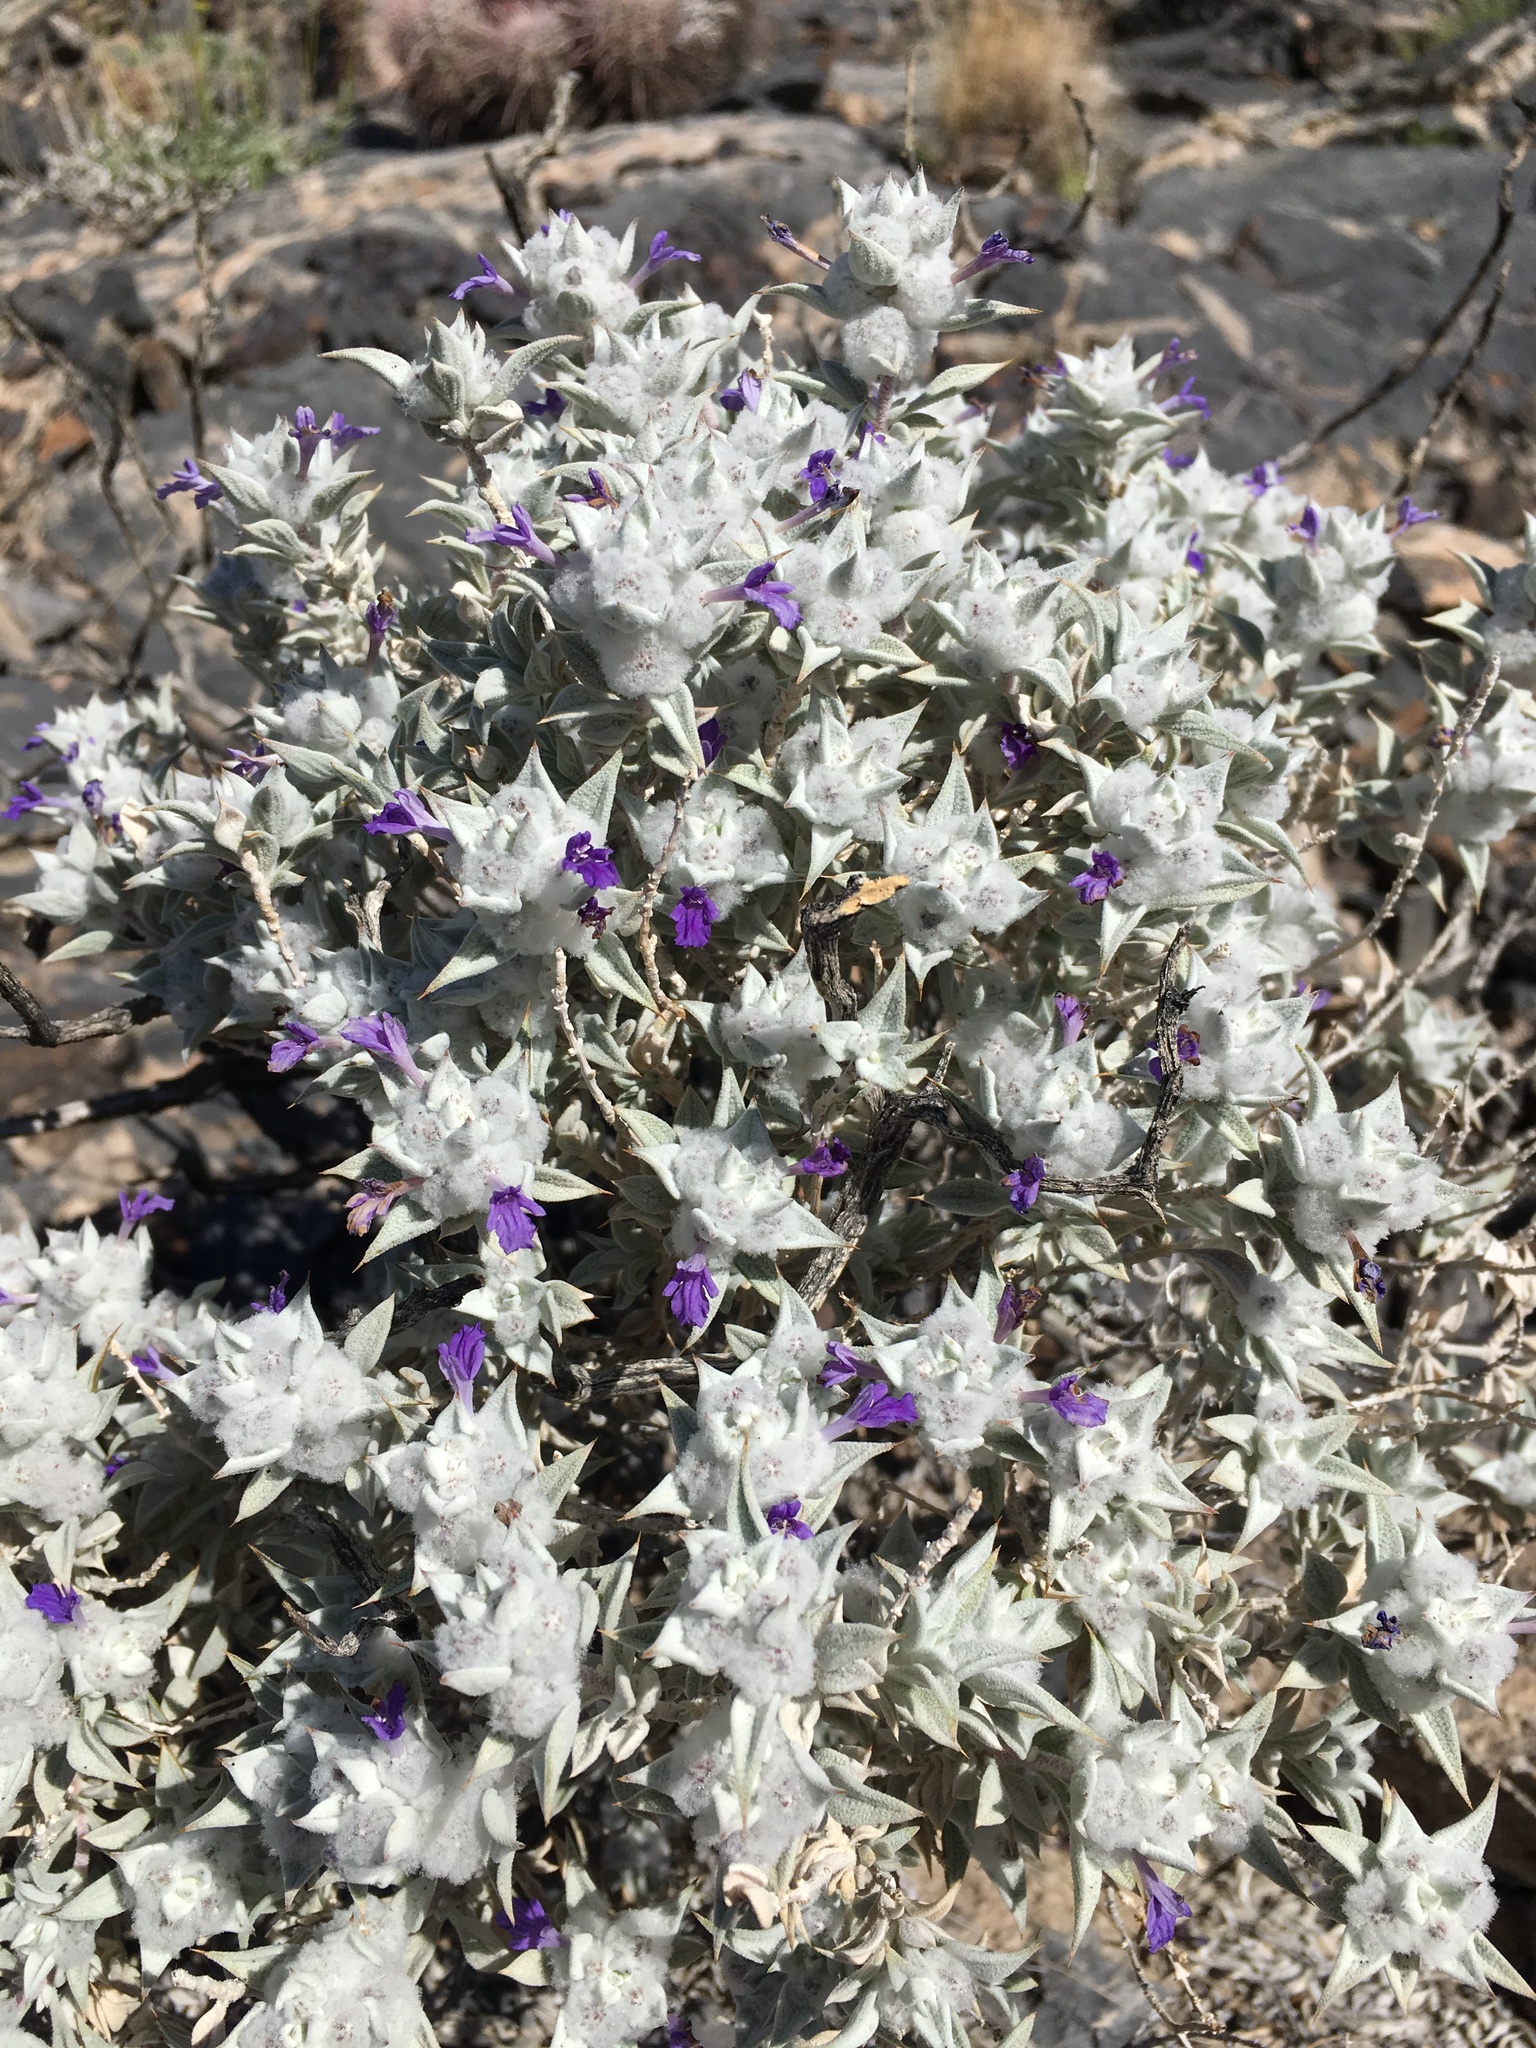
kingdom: Plantae
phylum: Tracheophyta
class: Magnoliopsida
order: Lamiales
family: Lamiaceae
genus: Salvia
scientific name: Salvia funerea
